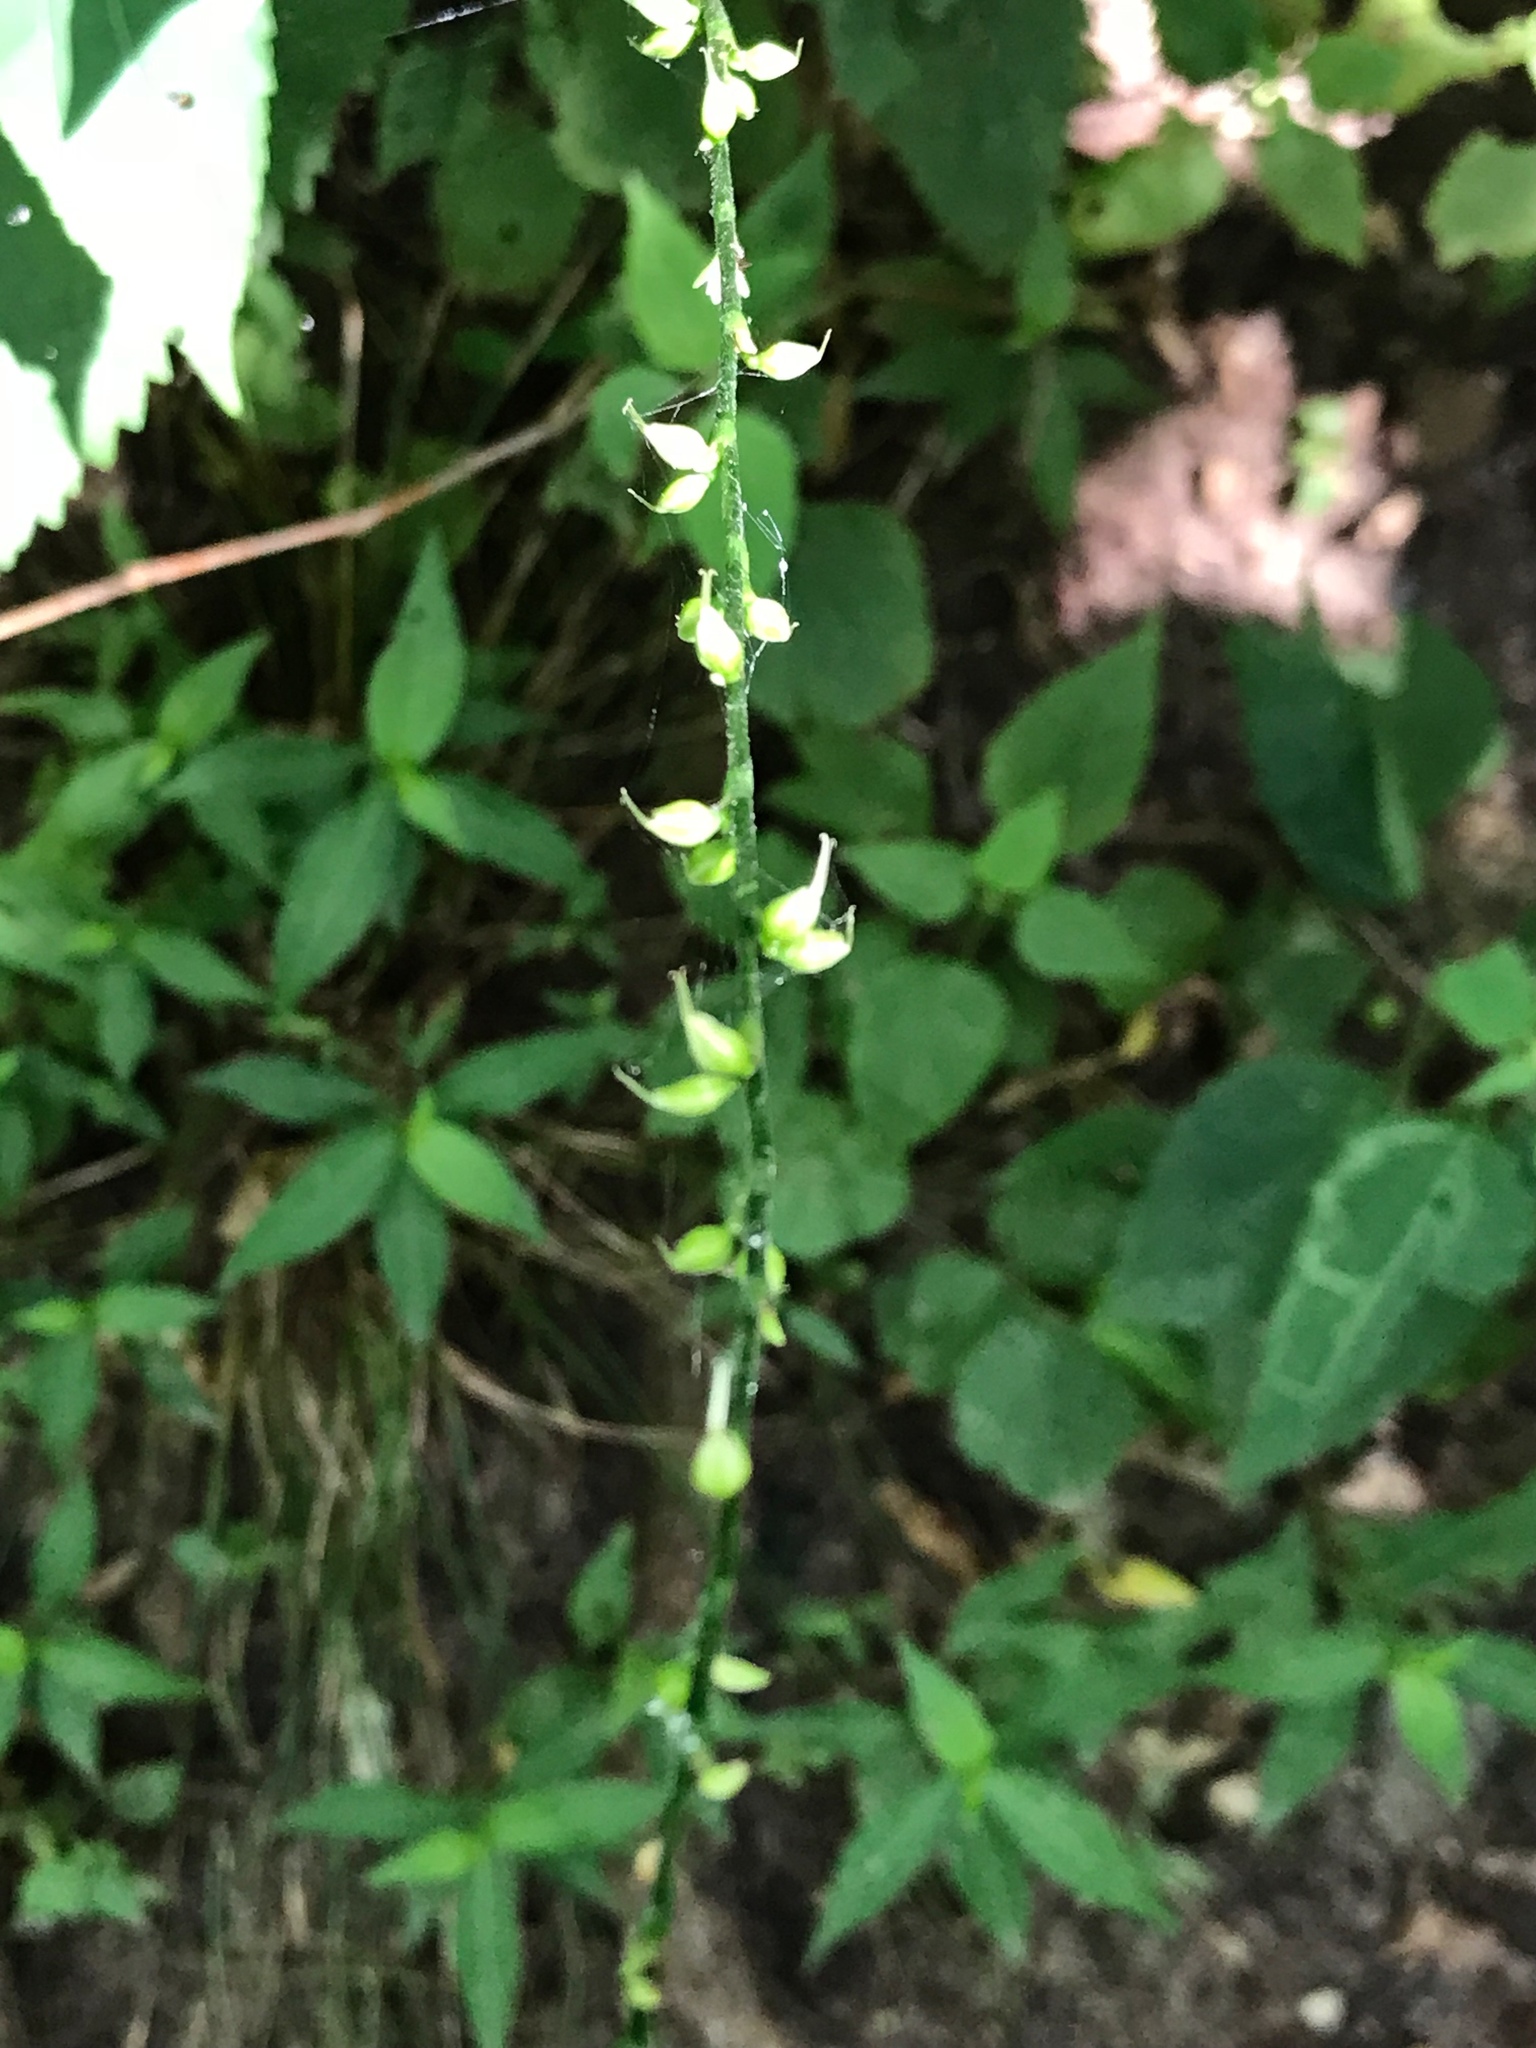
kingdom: Plantae
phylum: Tracheophyta
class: Magnoliopsida
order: Caryophyllales
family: Polygonaceae
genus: Persicaria
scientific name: Persicaria virginiana
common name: Jumpseed
